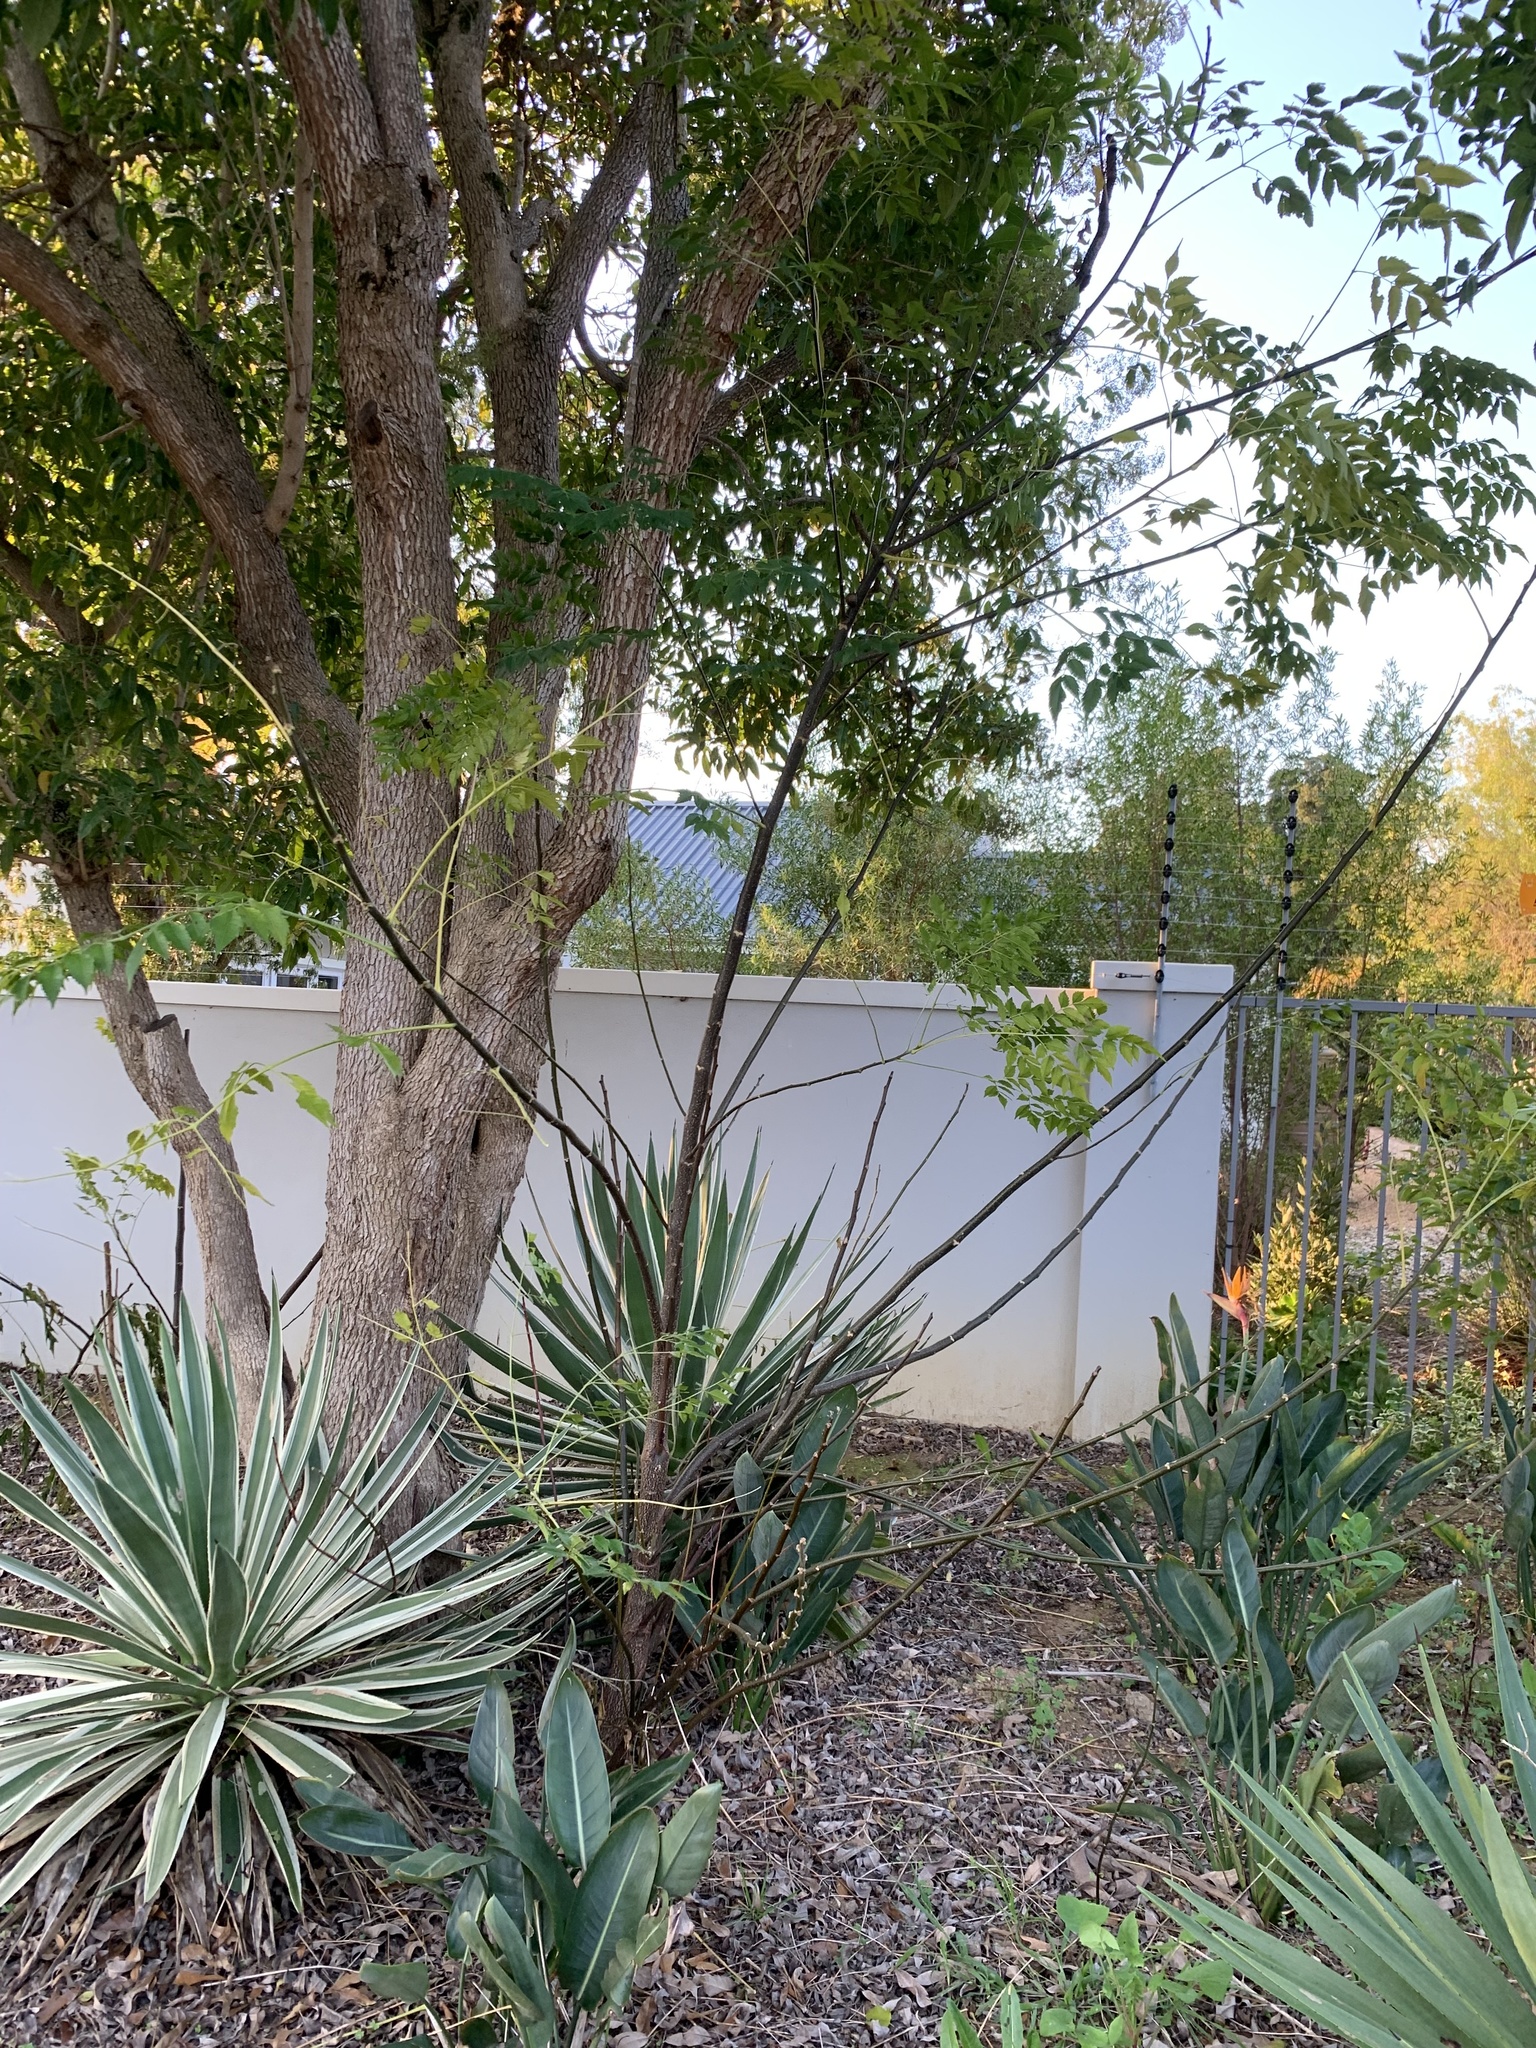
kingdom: Plantae
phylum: Tracheophyta
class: Magnoliopsida
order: Sapindales
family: Meliaceae
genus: Melia
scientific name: Melia azedarach
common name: Chinaberrytree
